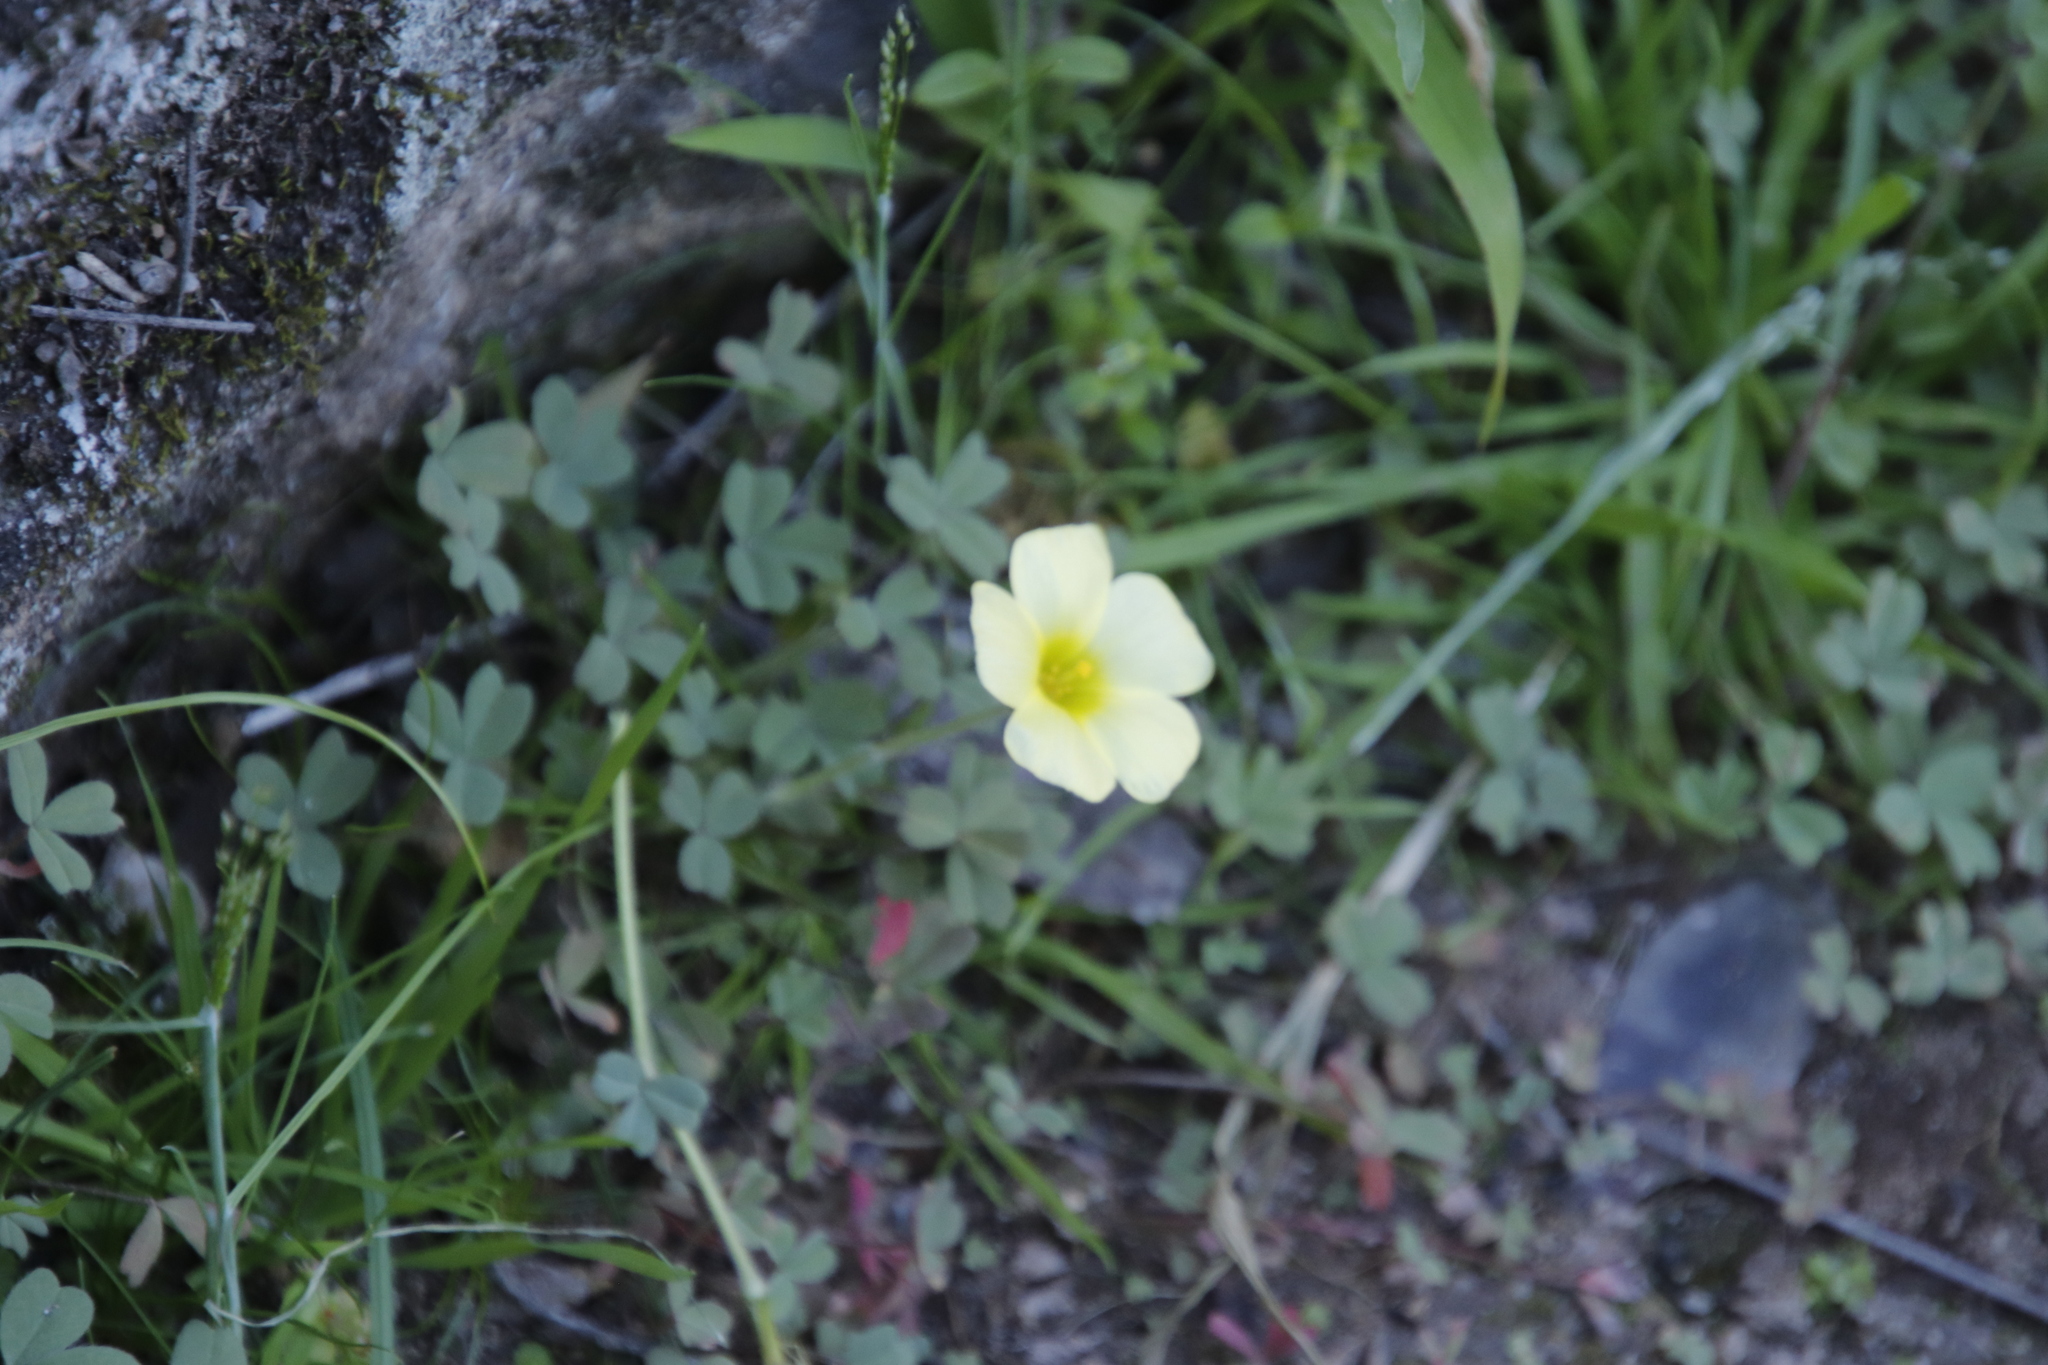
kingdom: Plantae
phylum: Tracheophyta
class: Magnoliopsida
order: Oxalidales
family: Oxalidaceae
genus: Oxalis
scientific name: Oxalis obtusa
